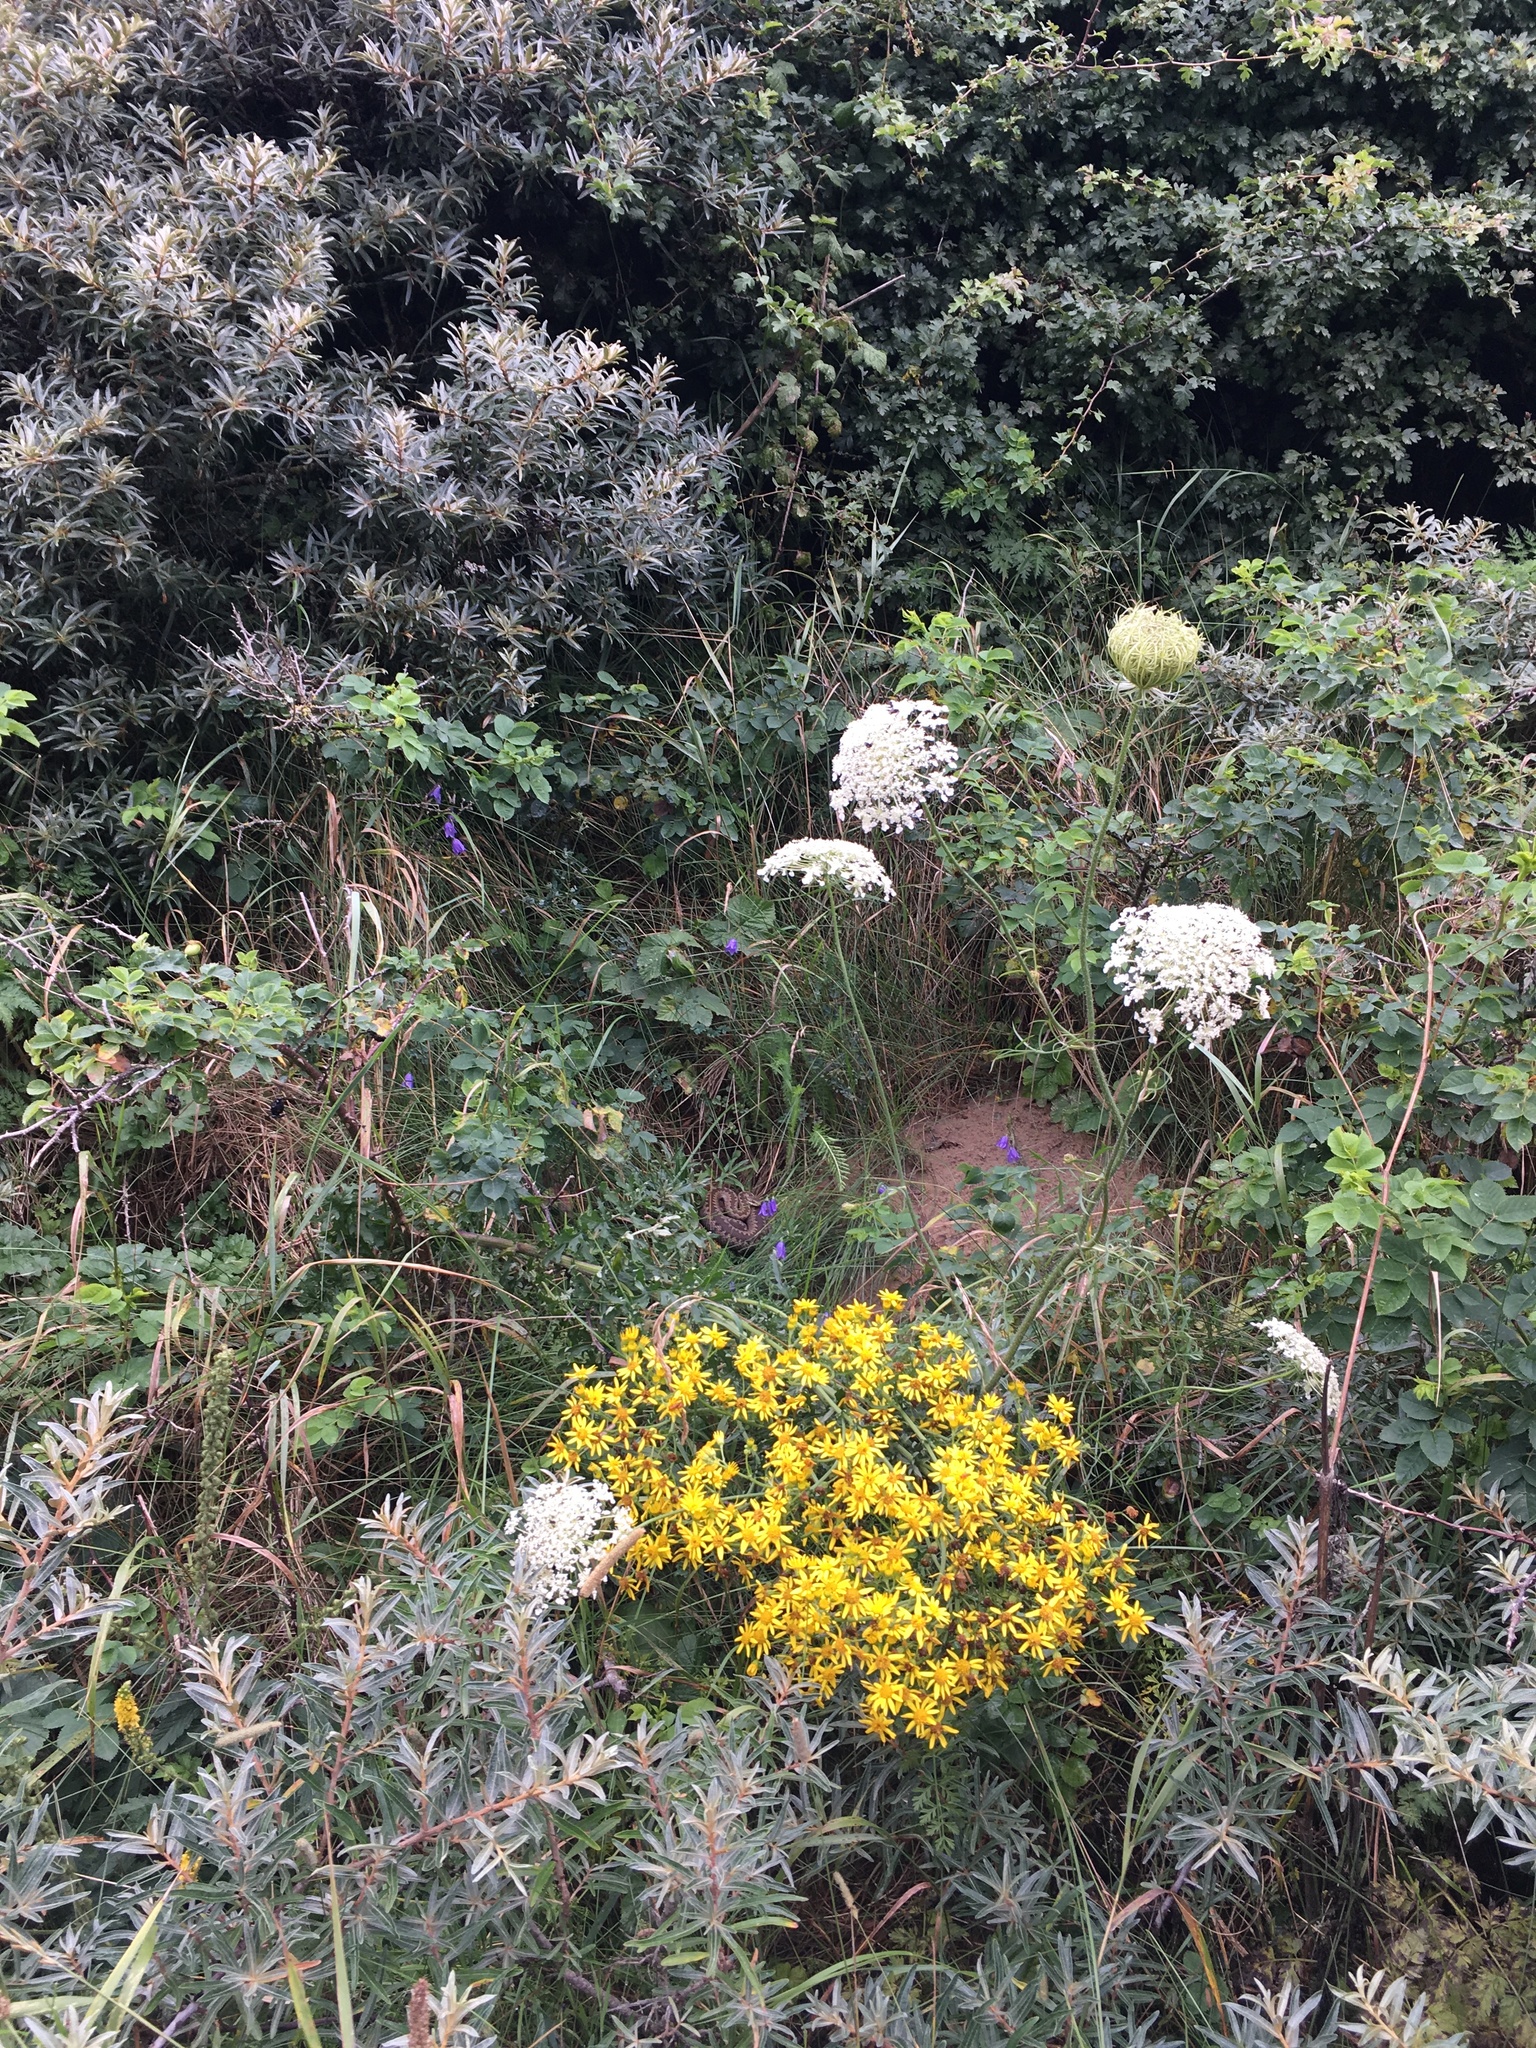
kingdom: Animalia
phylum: Chordata
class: Squamata
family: Viperidae
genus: Vipera
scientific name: Vipera berus
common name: Adder
